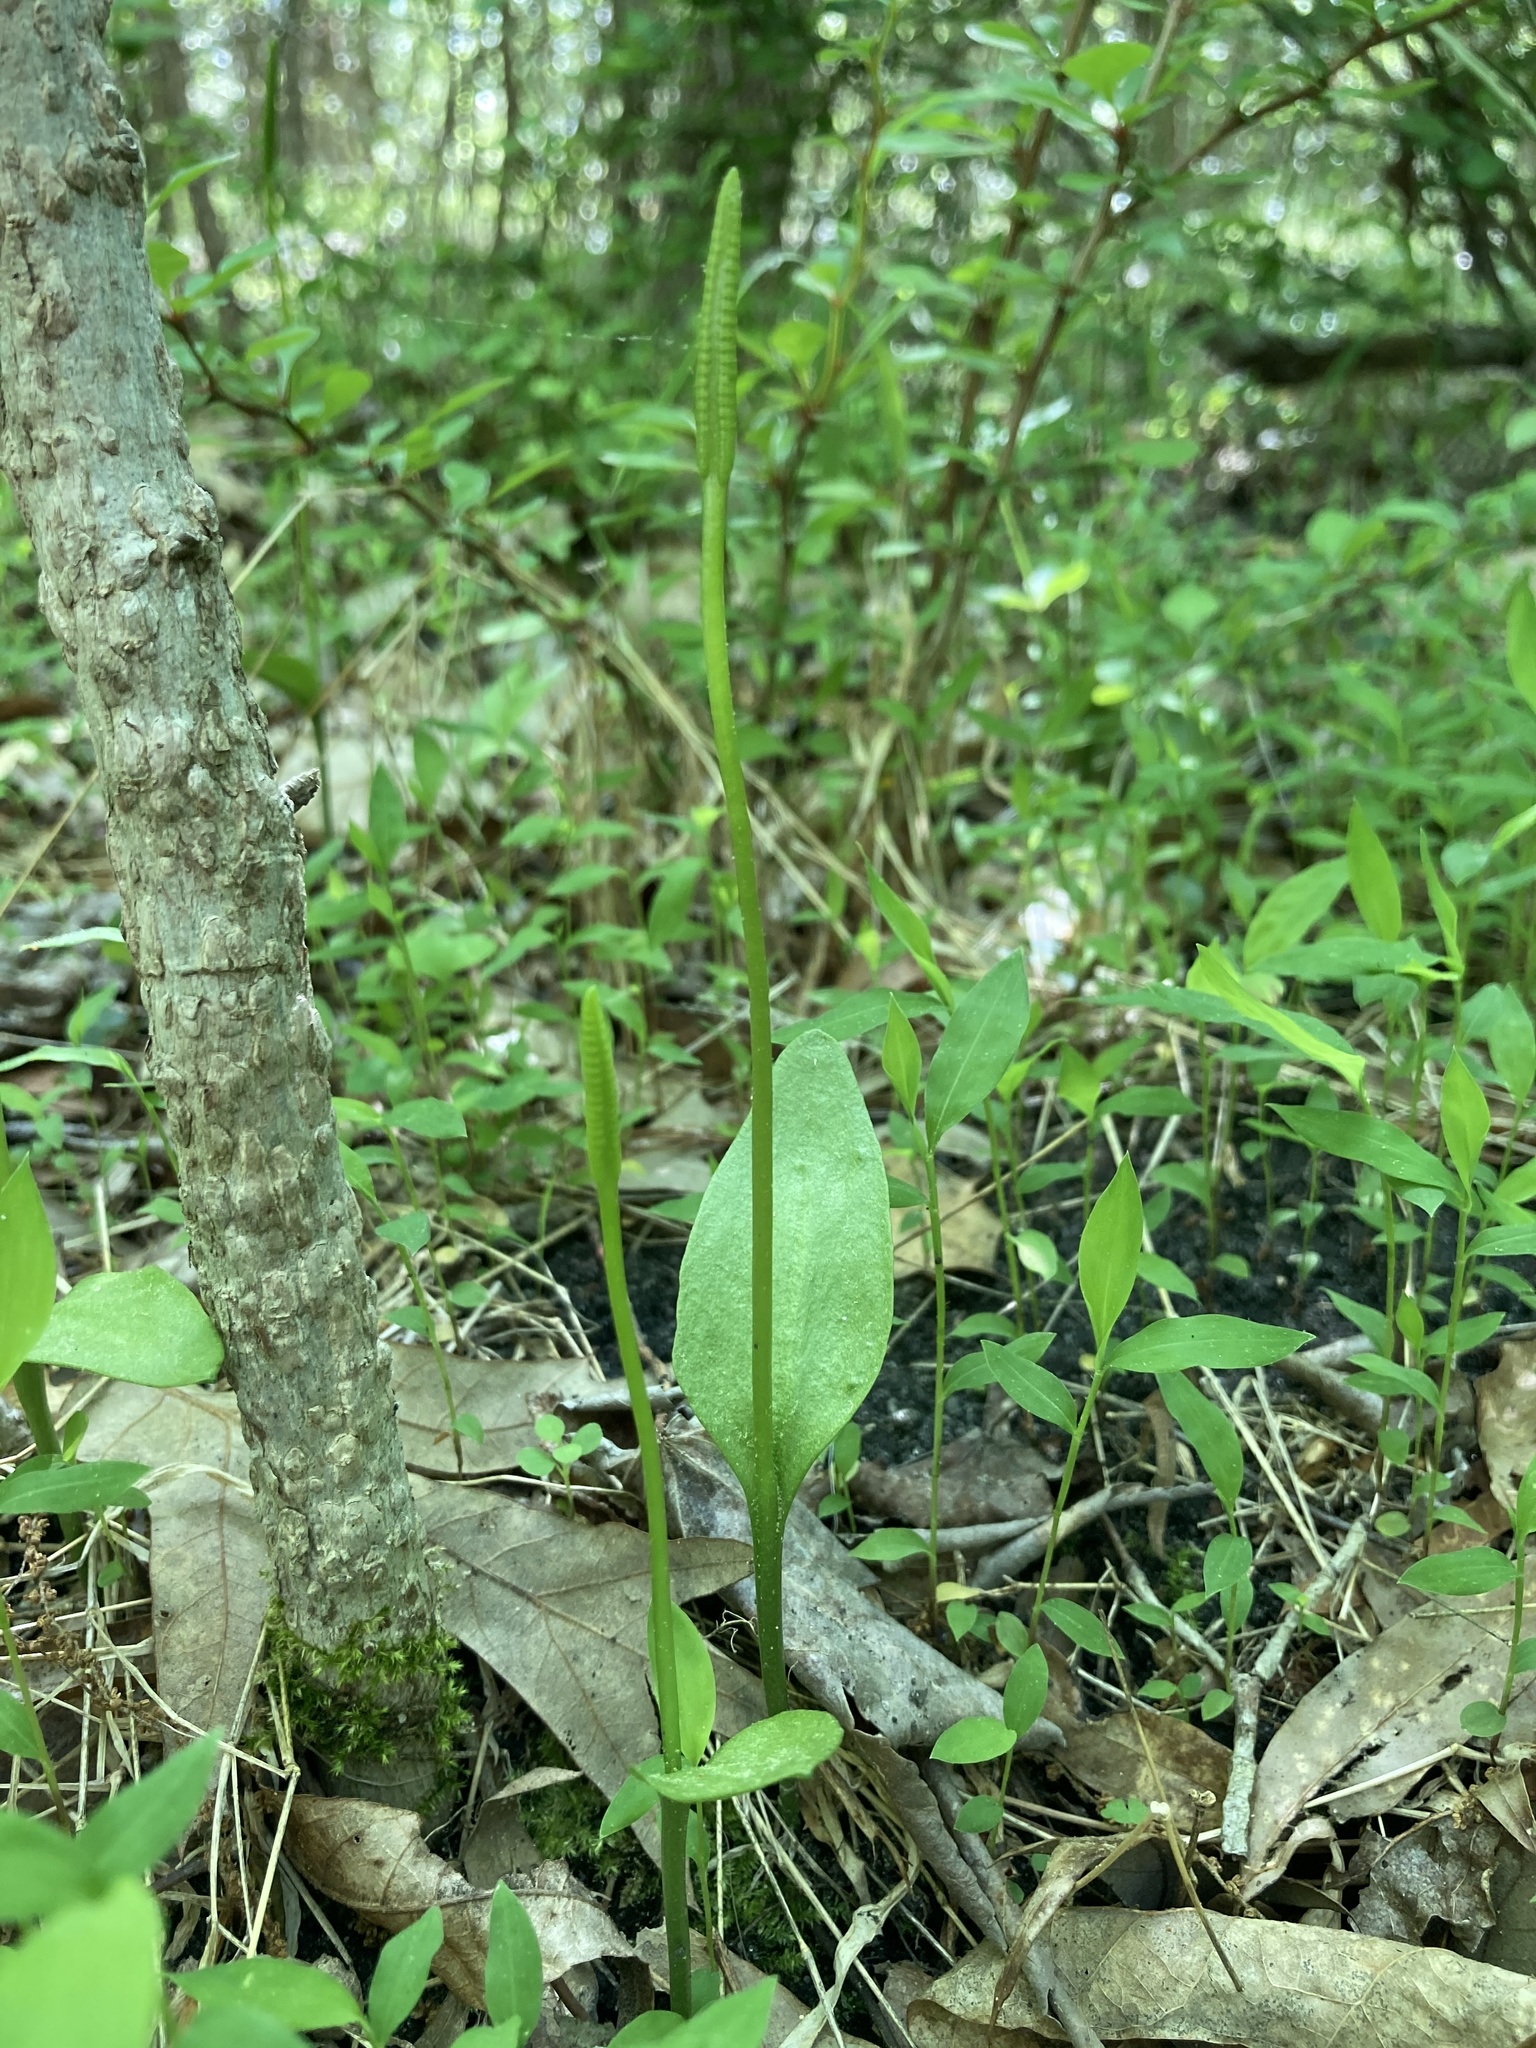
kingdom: Plantae
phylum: Tracheophyta
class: Polypodiopsida
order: Ophioglossales
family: Ophioglossaceae
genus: Ophioglossum
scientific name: Ophioglossum pusillum
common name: Northern adder's-tongue
